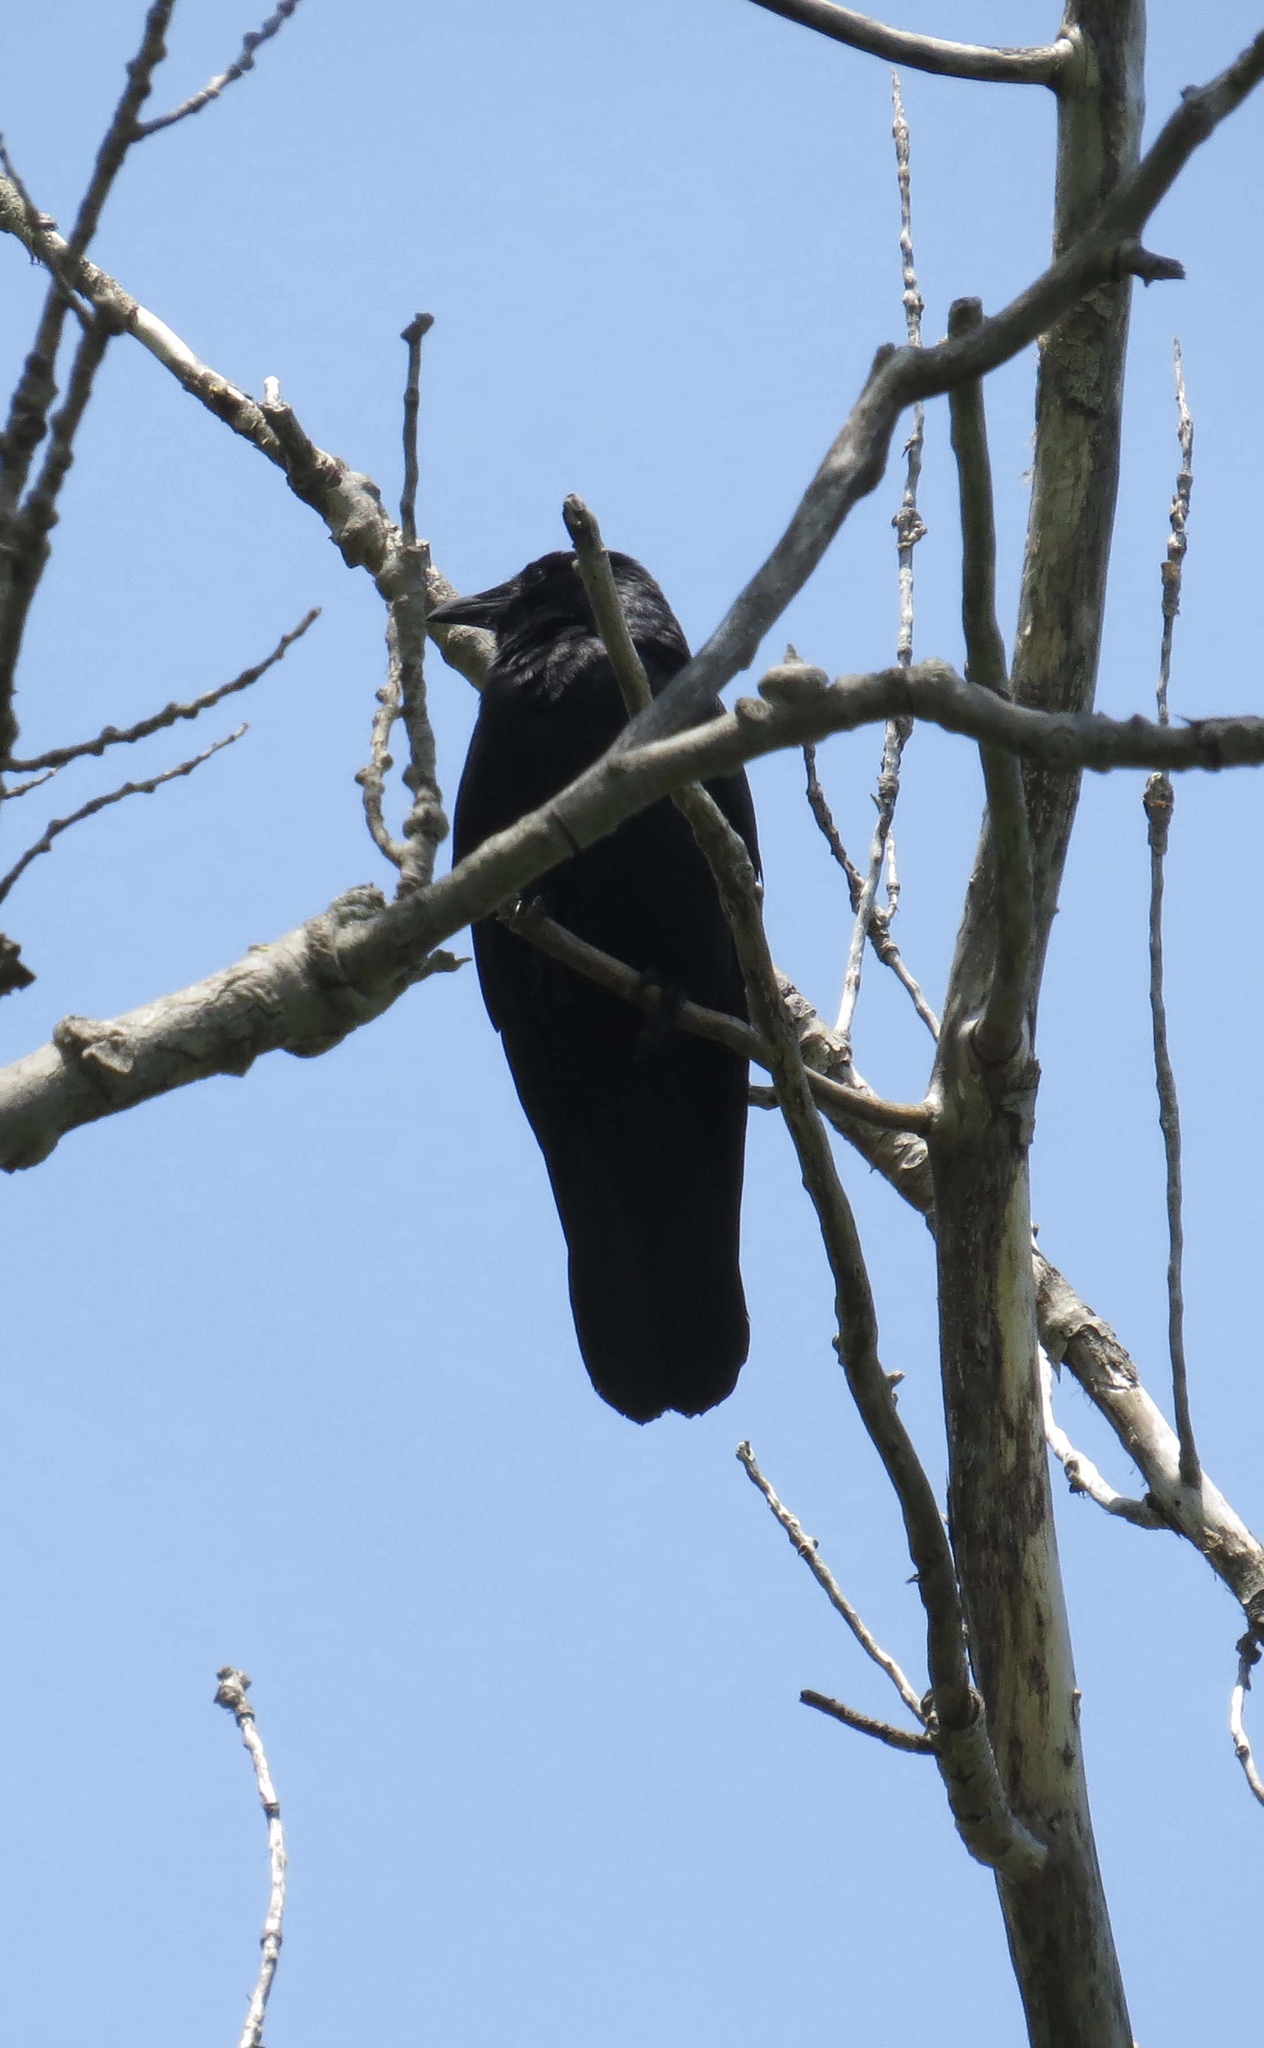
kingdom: Animalia
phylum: Chordata
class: Aves
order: Passeriformes
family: Corvidae
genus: Corvus
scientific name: Corvus brachyrhynchos
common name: American crow
